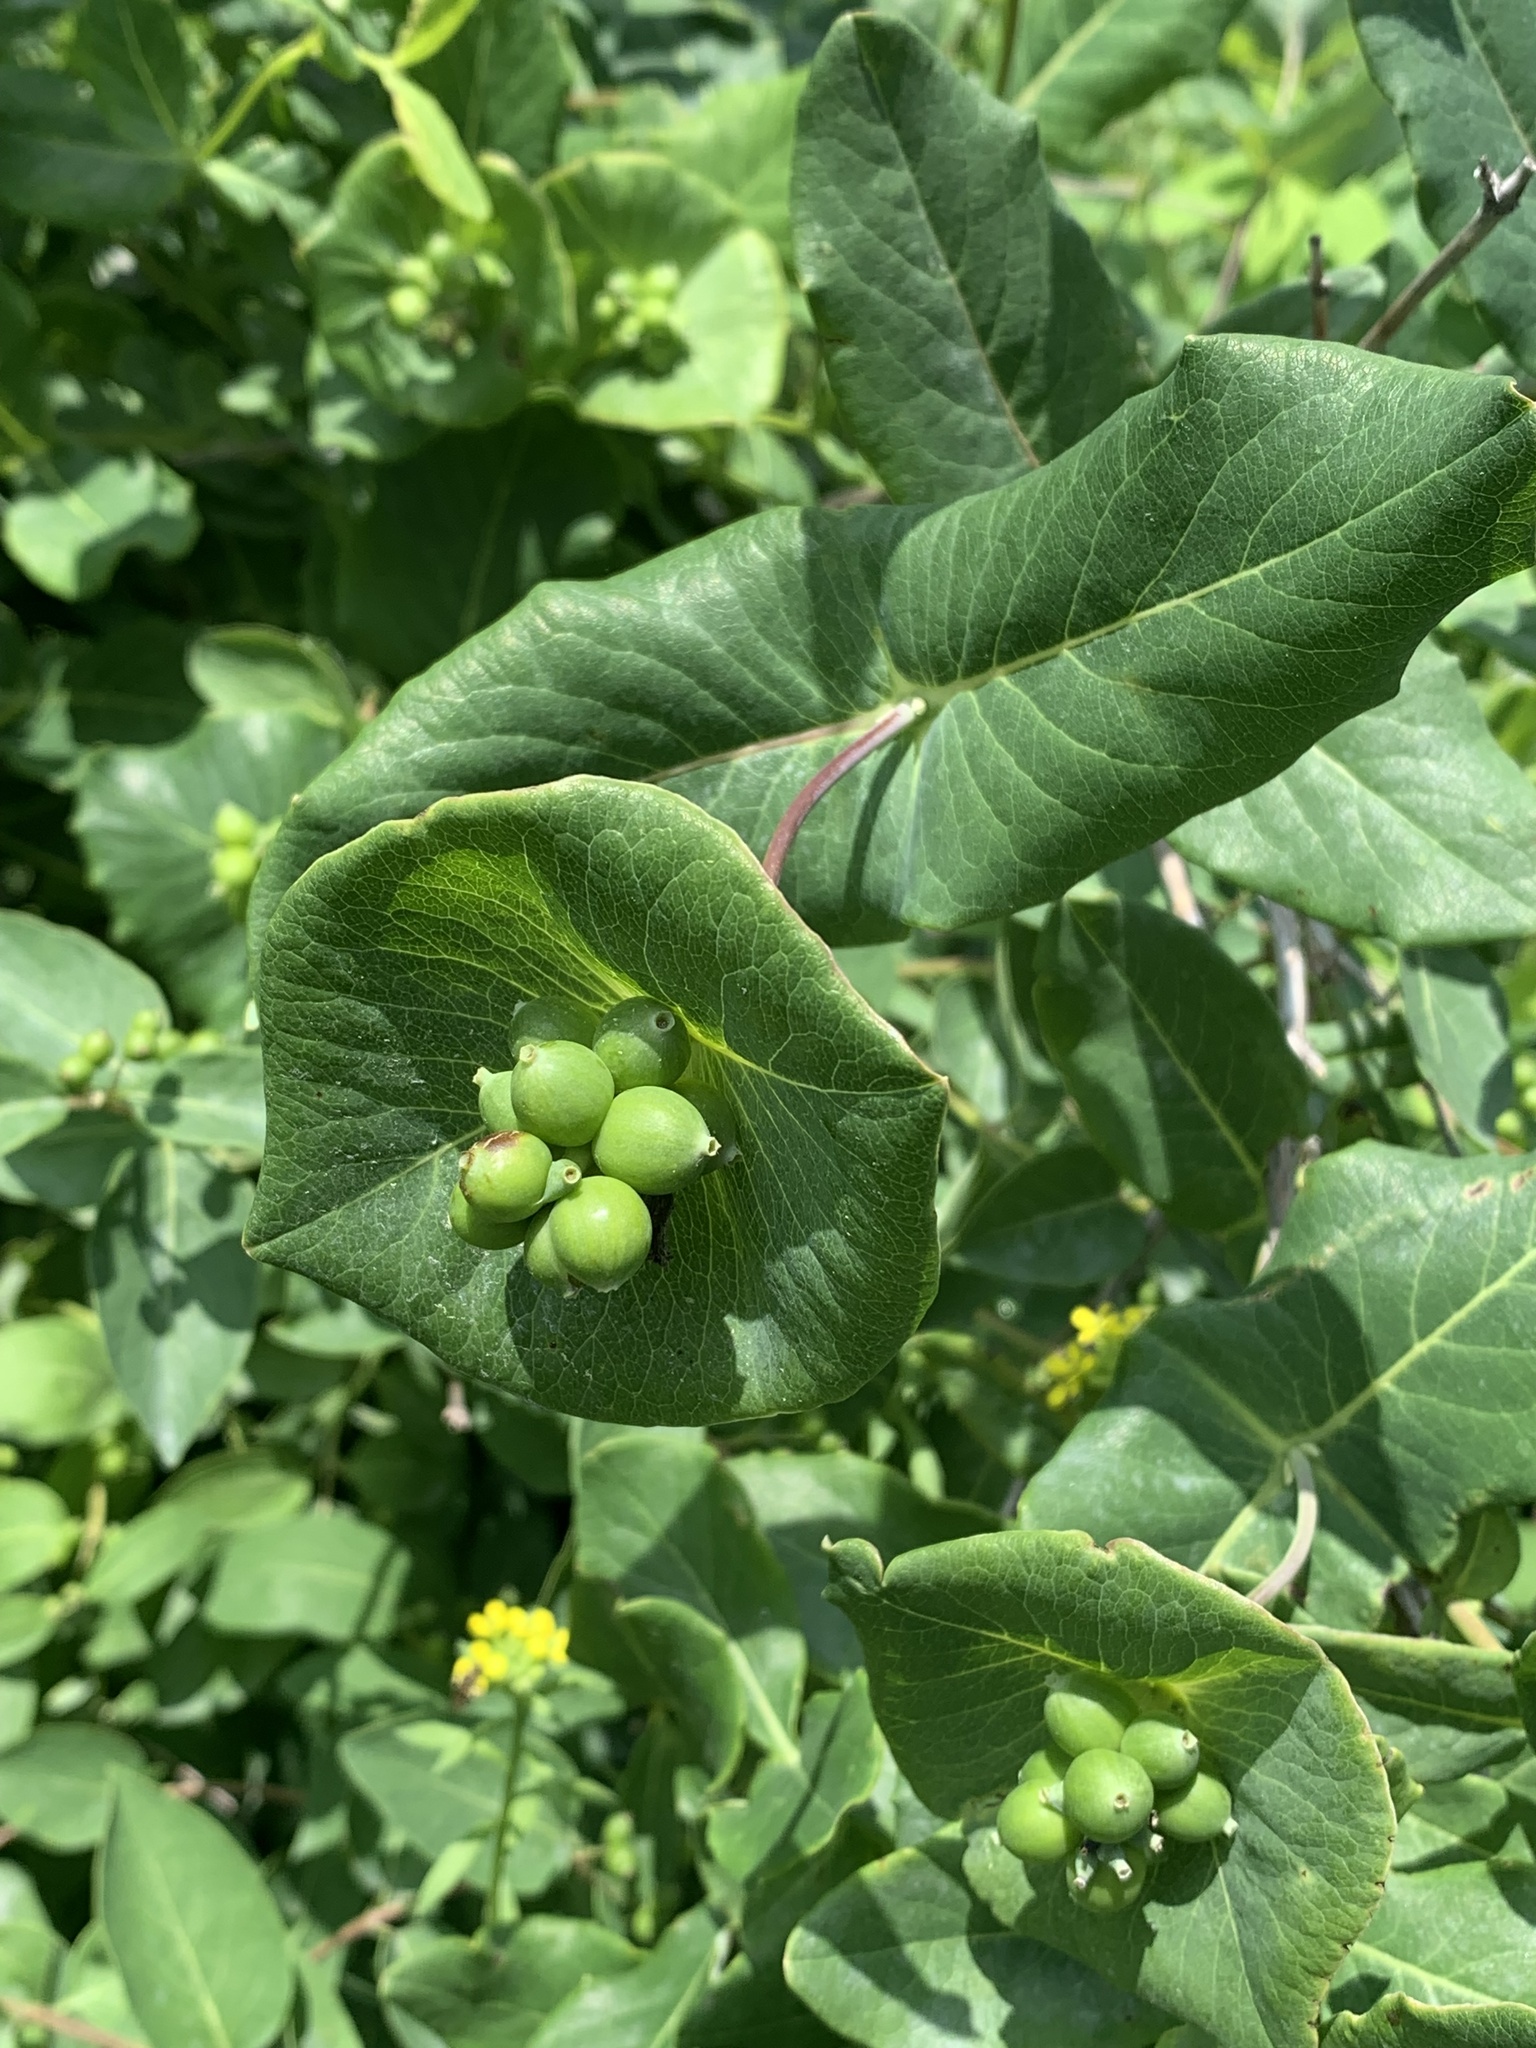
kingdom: Plantae
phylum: Tracheophyta
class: Magnoliopsida
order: Dipsacales
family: Caprifoliaceae
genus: Lonicera
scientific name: Lonicera dioica
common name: Limber honeysuckle
